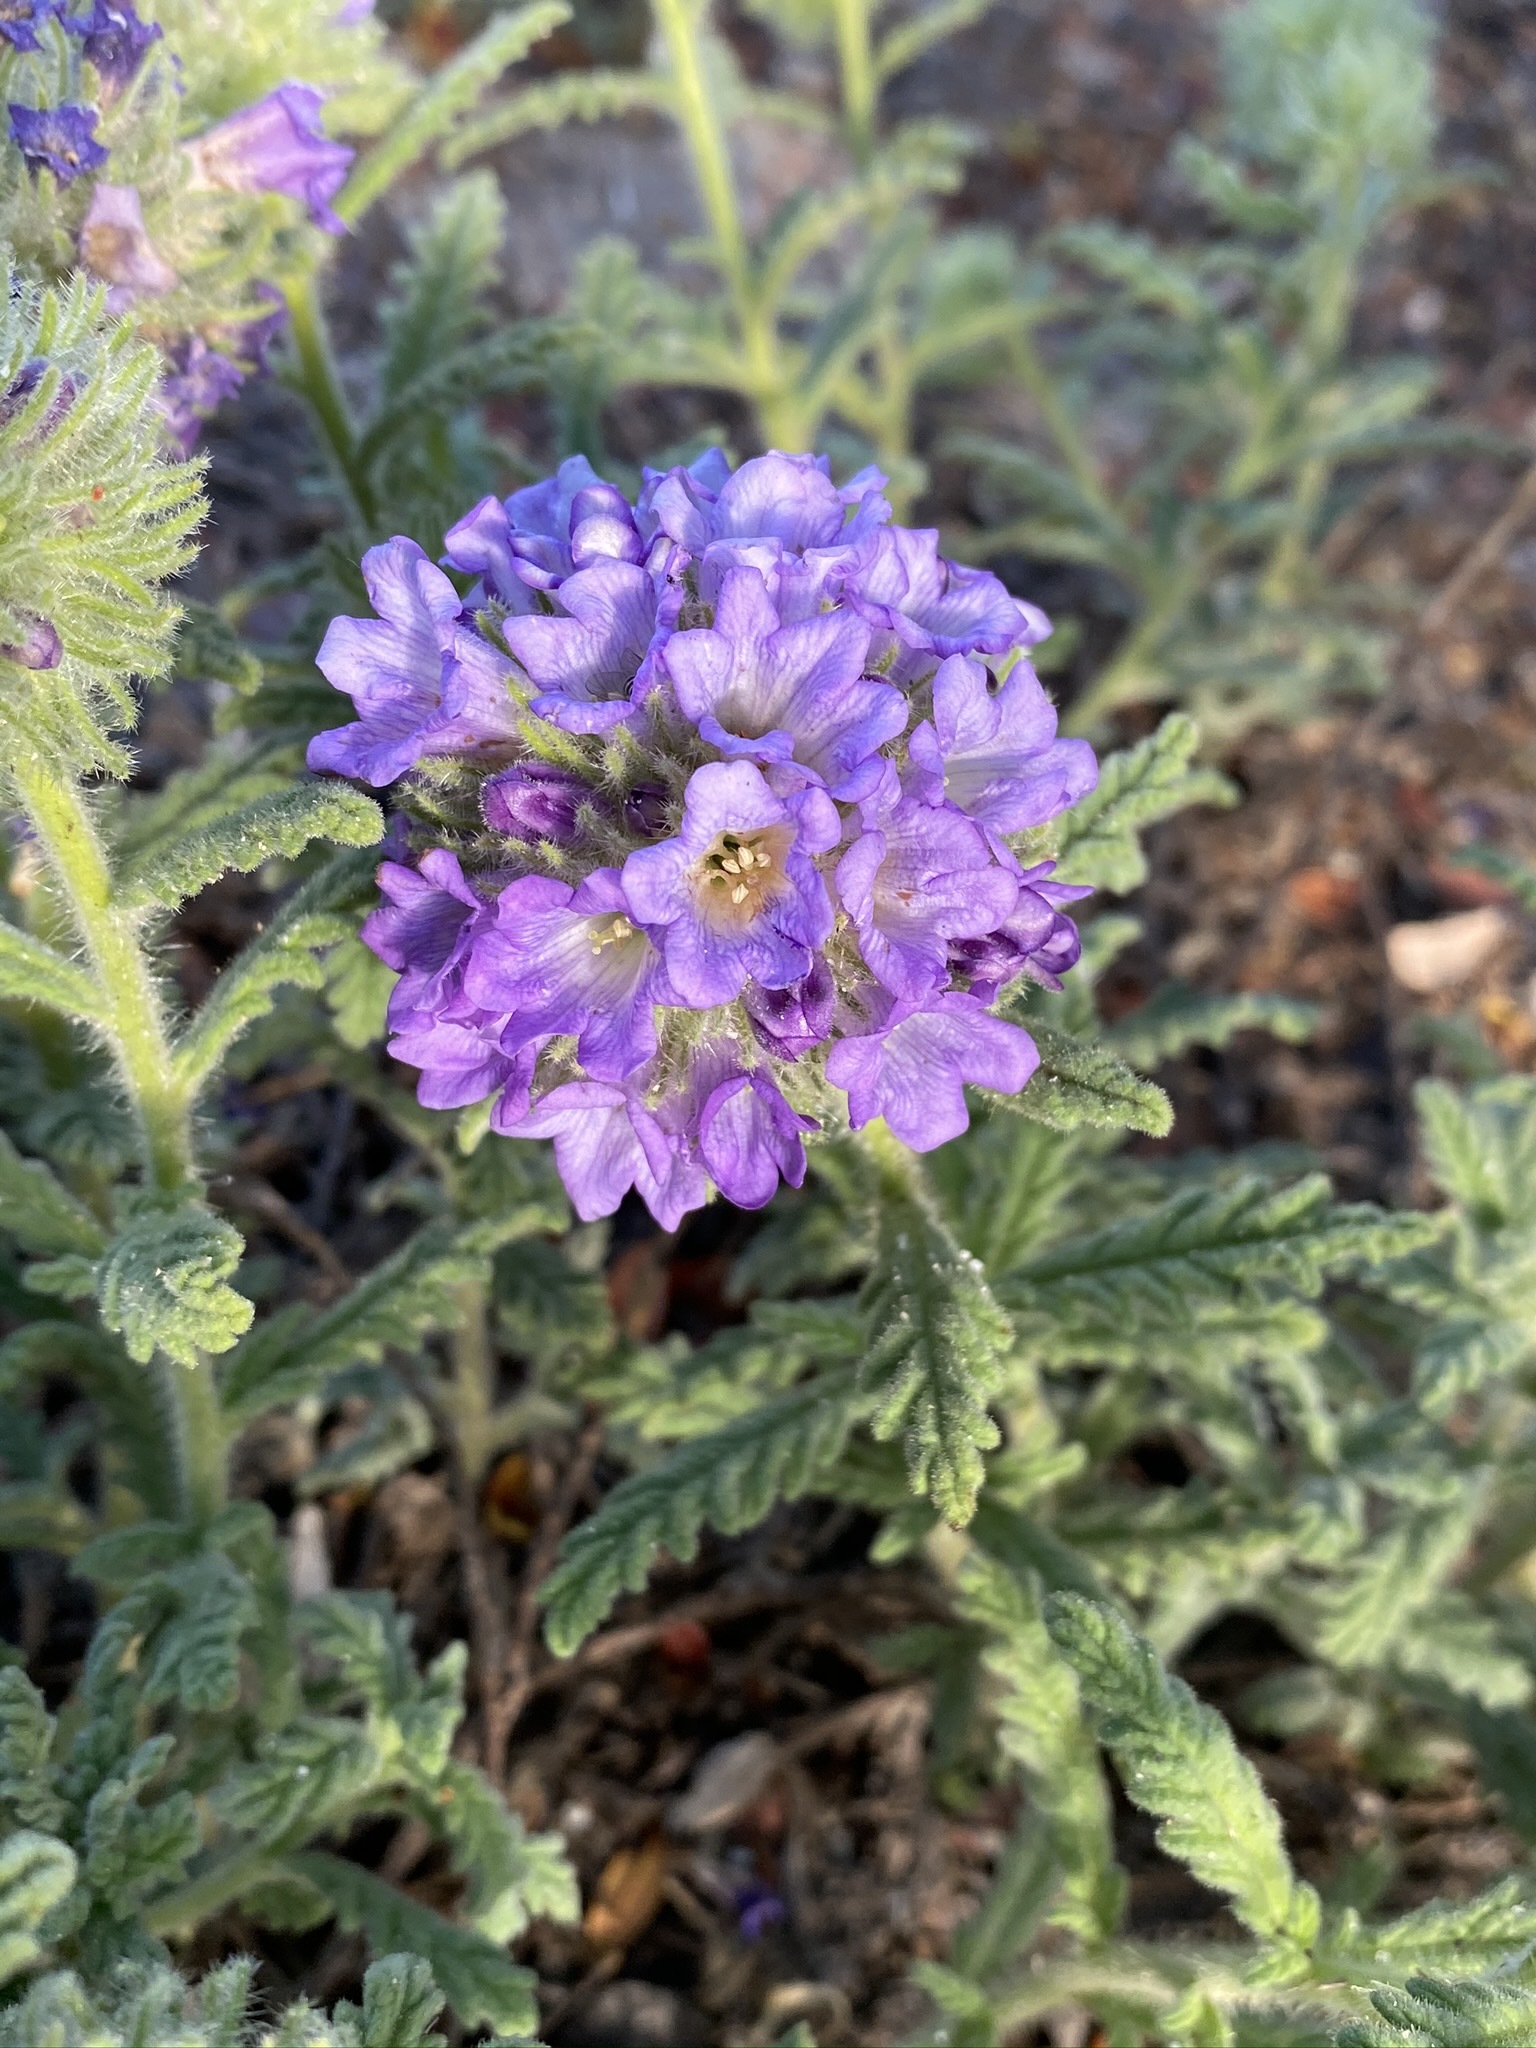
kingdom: Plantae
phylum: Tracheophyta
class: Magnoliopsida
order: Boraginales
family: Namaceae
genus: Nama
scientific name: Nama rothrockii
